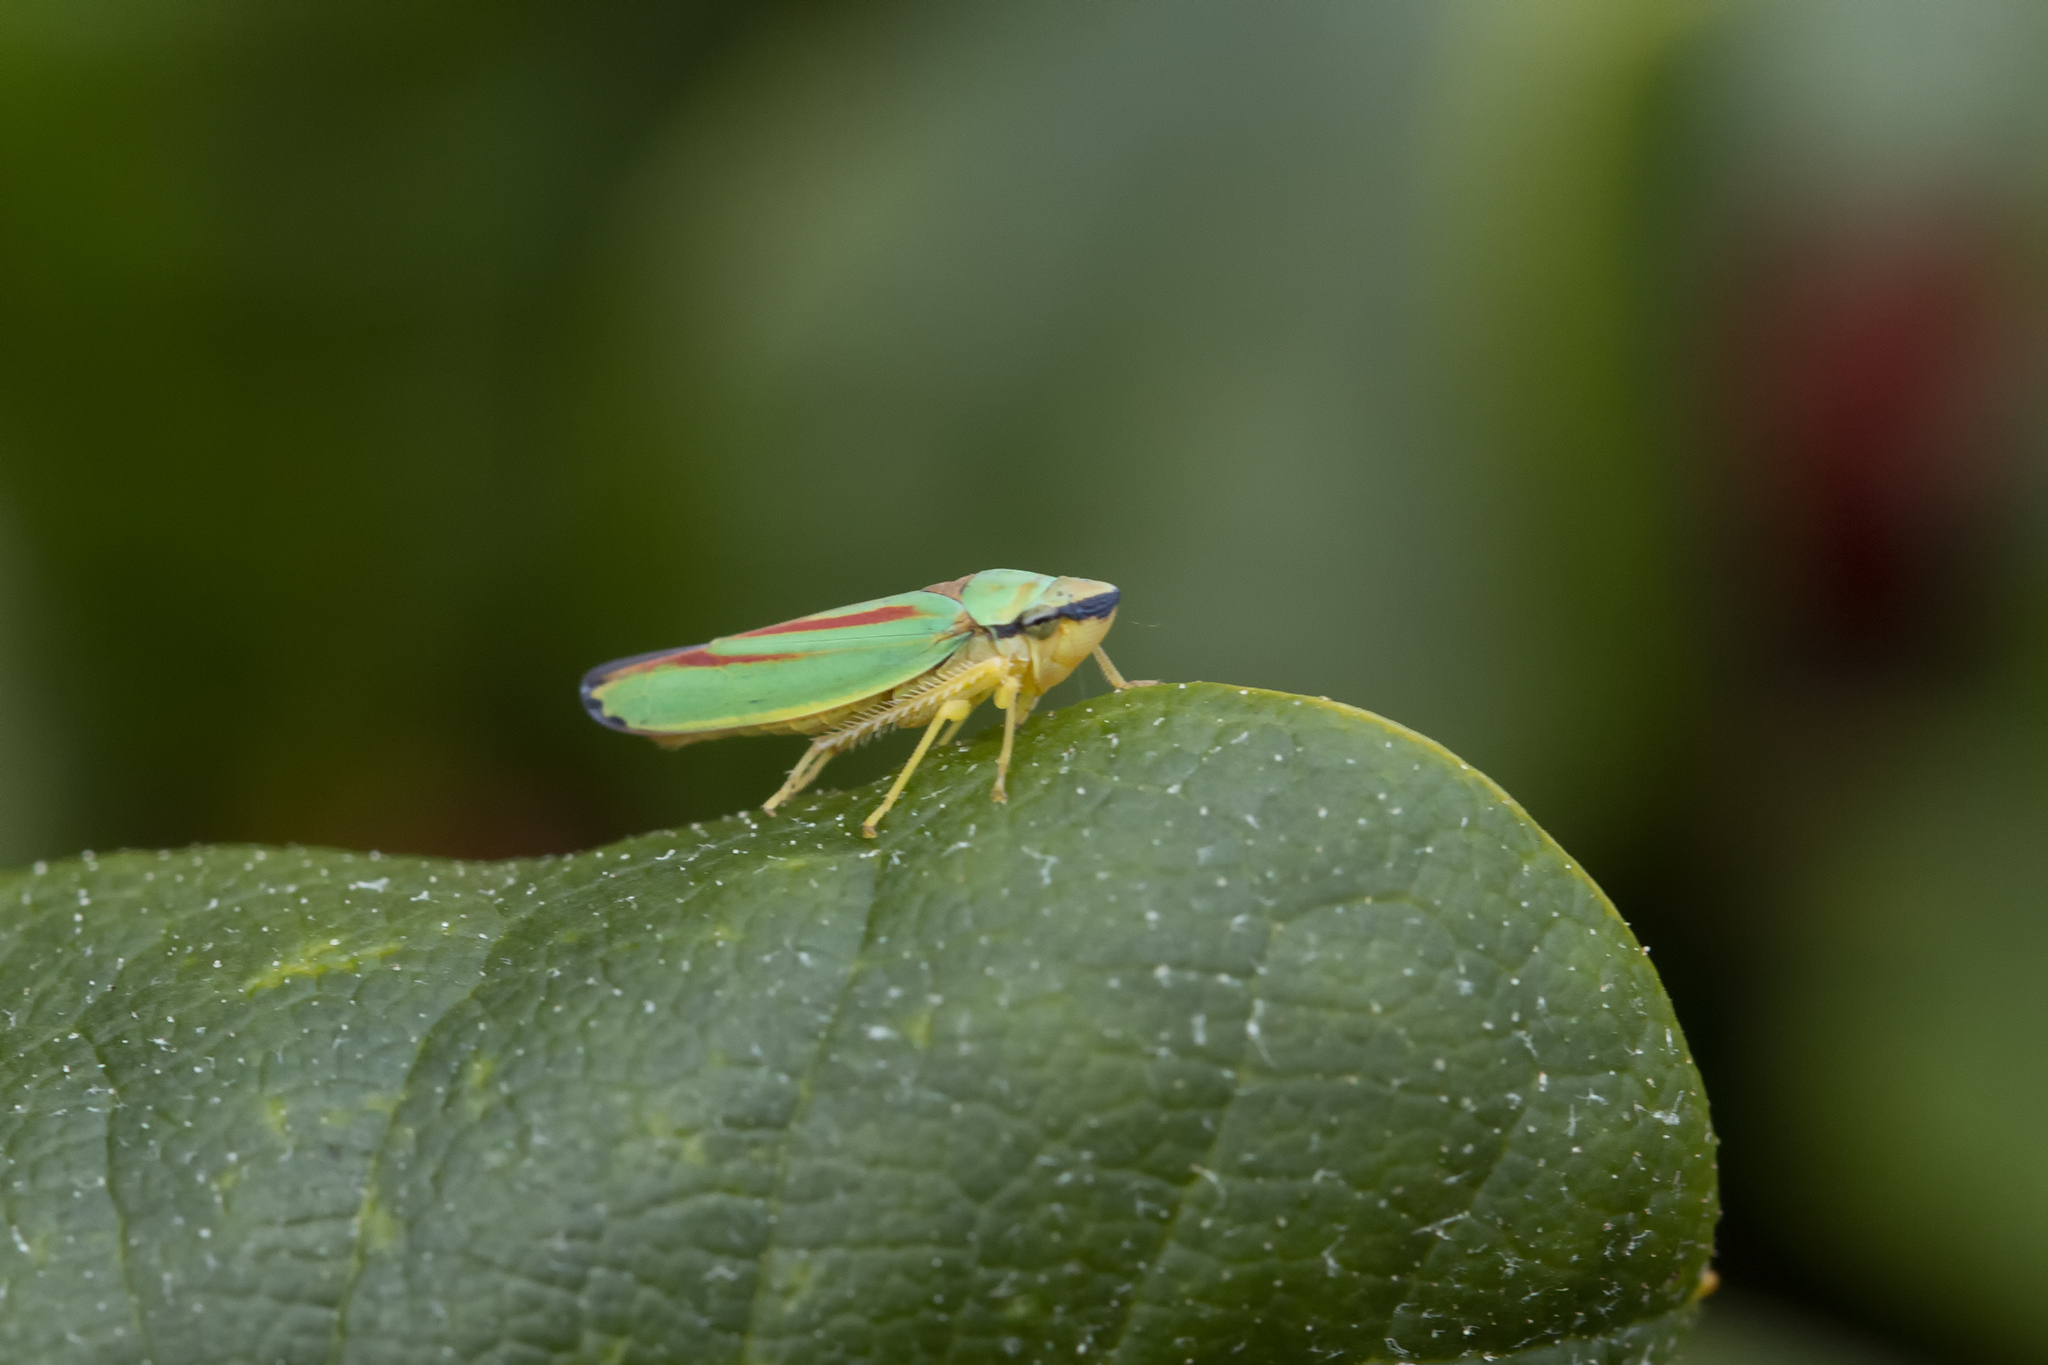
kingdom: Animalia
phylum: Arthropoda
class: Insecta
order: Hemiptera
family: Cicadellidae
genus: Graphocephala
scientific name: Graphocephala fennahi
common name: Rhododendron leafhopper
